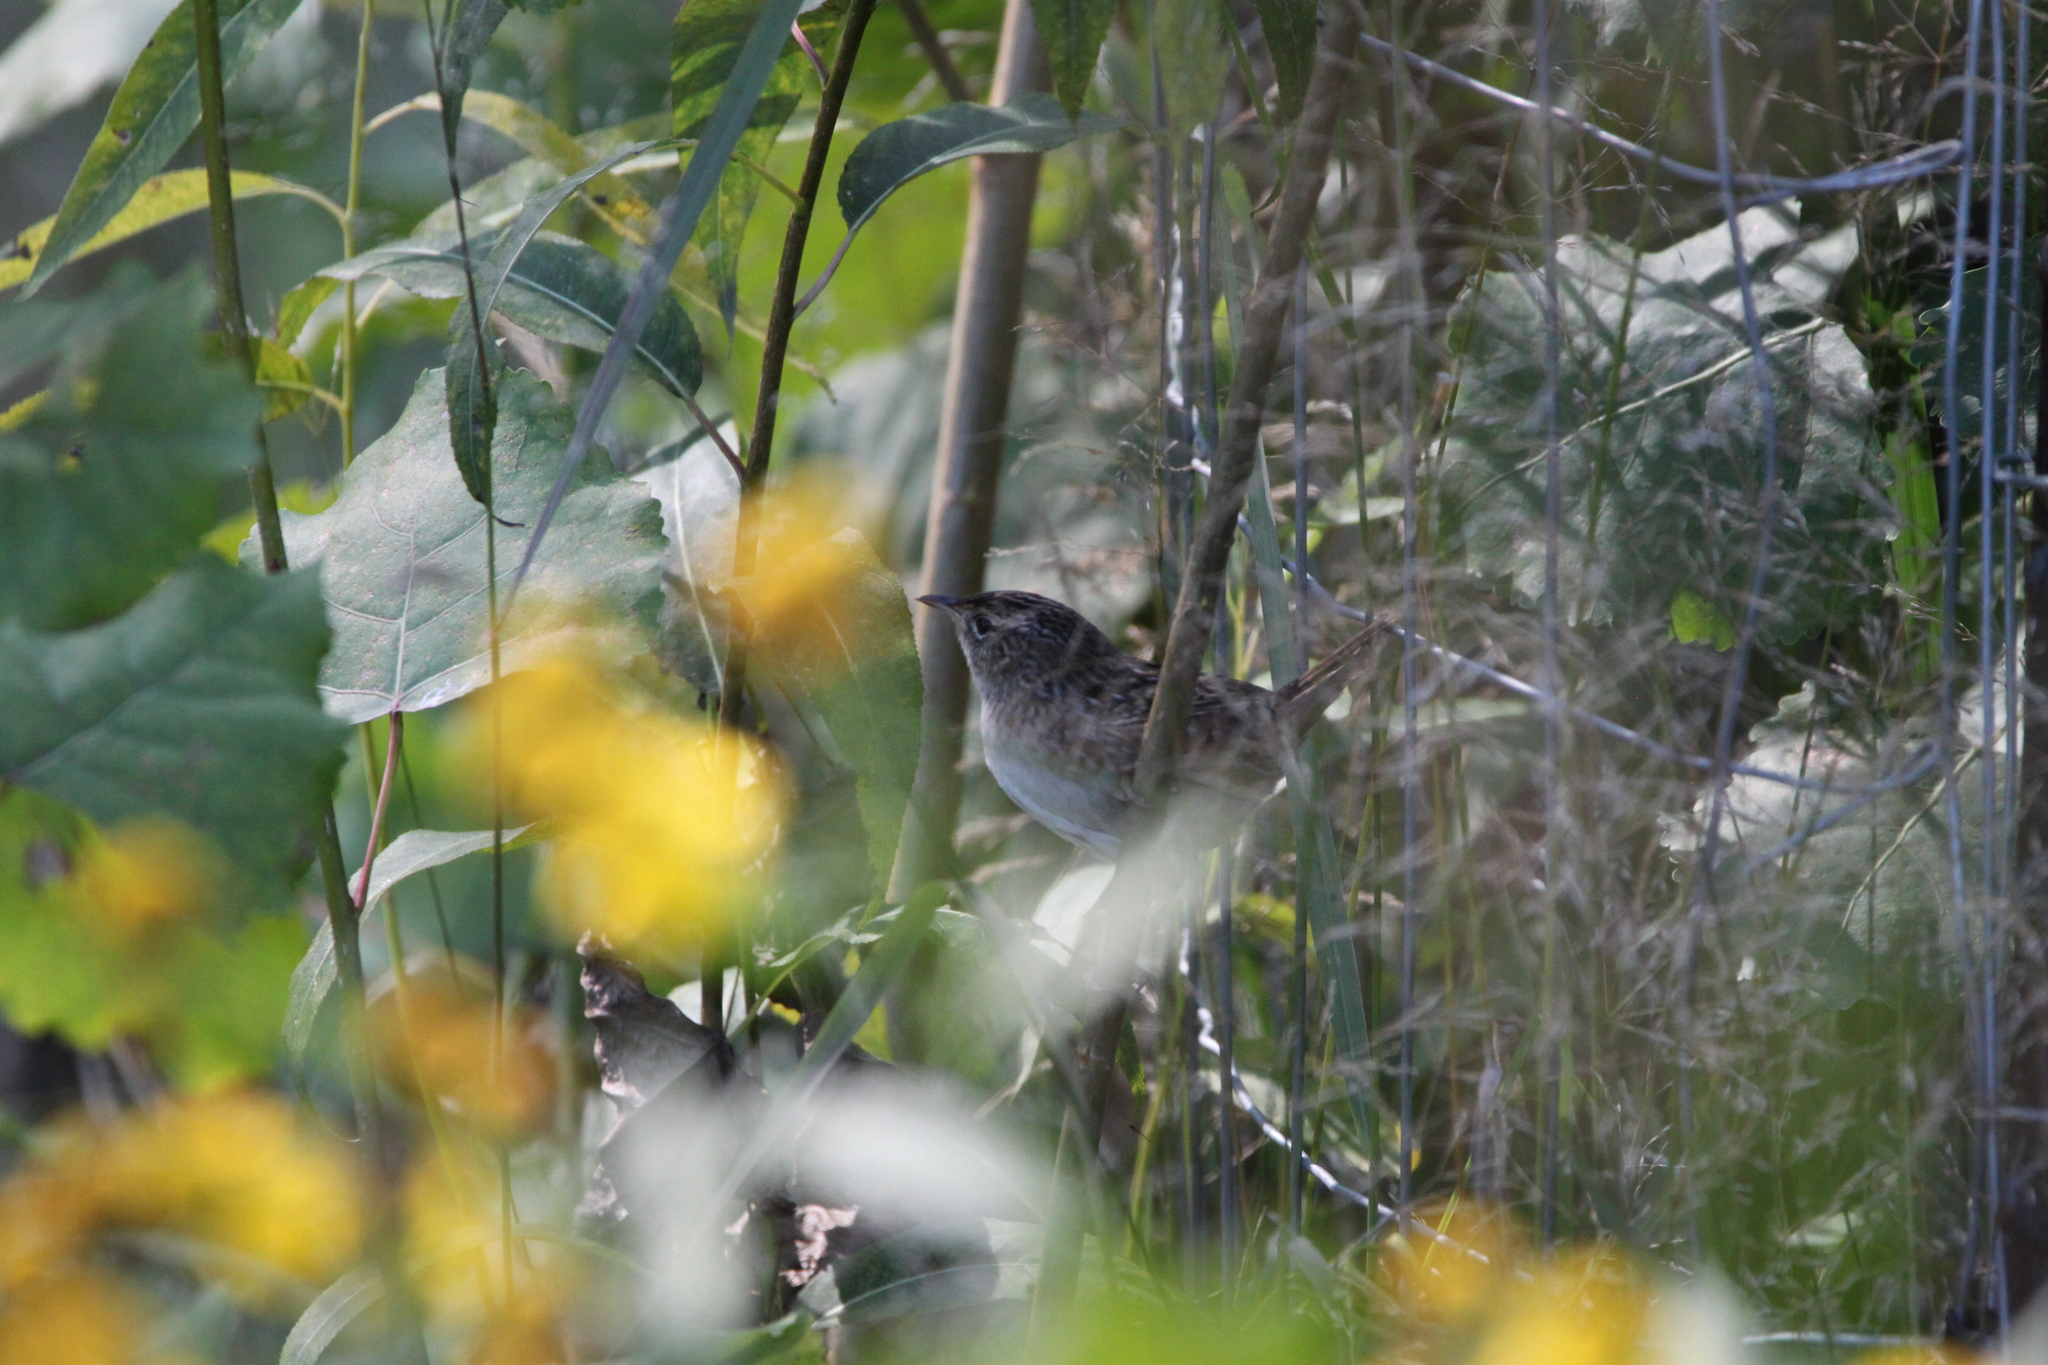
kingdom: Animalia
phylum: Chordata
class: Aves
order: Passeriformes
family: Troglodytidae
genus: Cistothorus
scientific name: Cistothorus platensis
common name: Sedge wren
